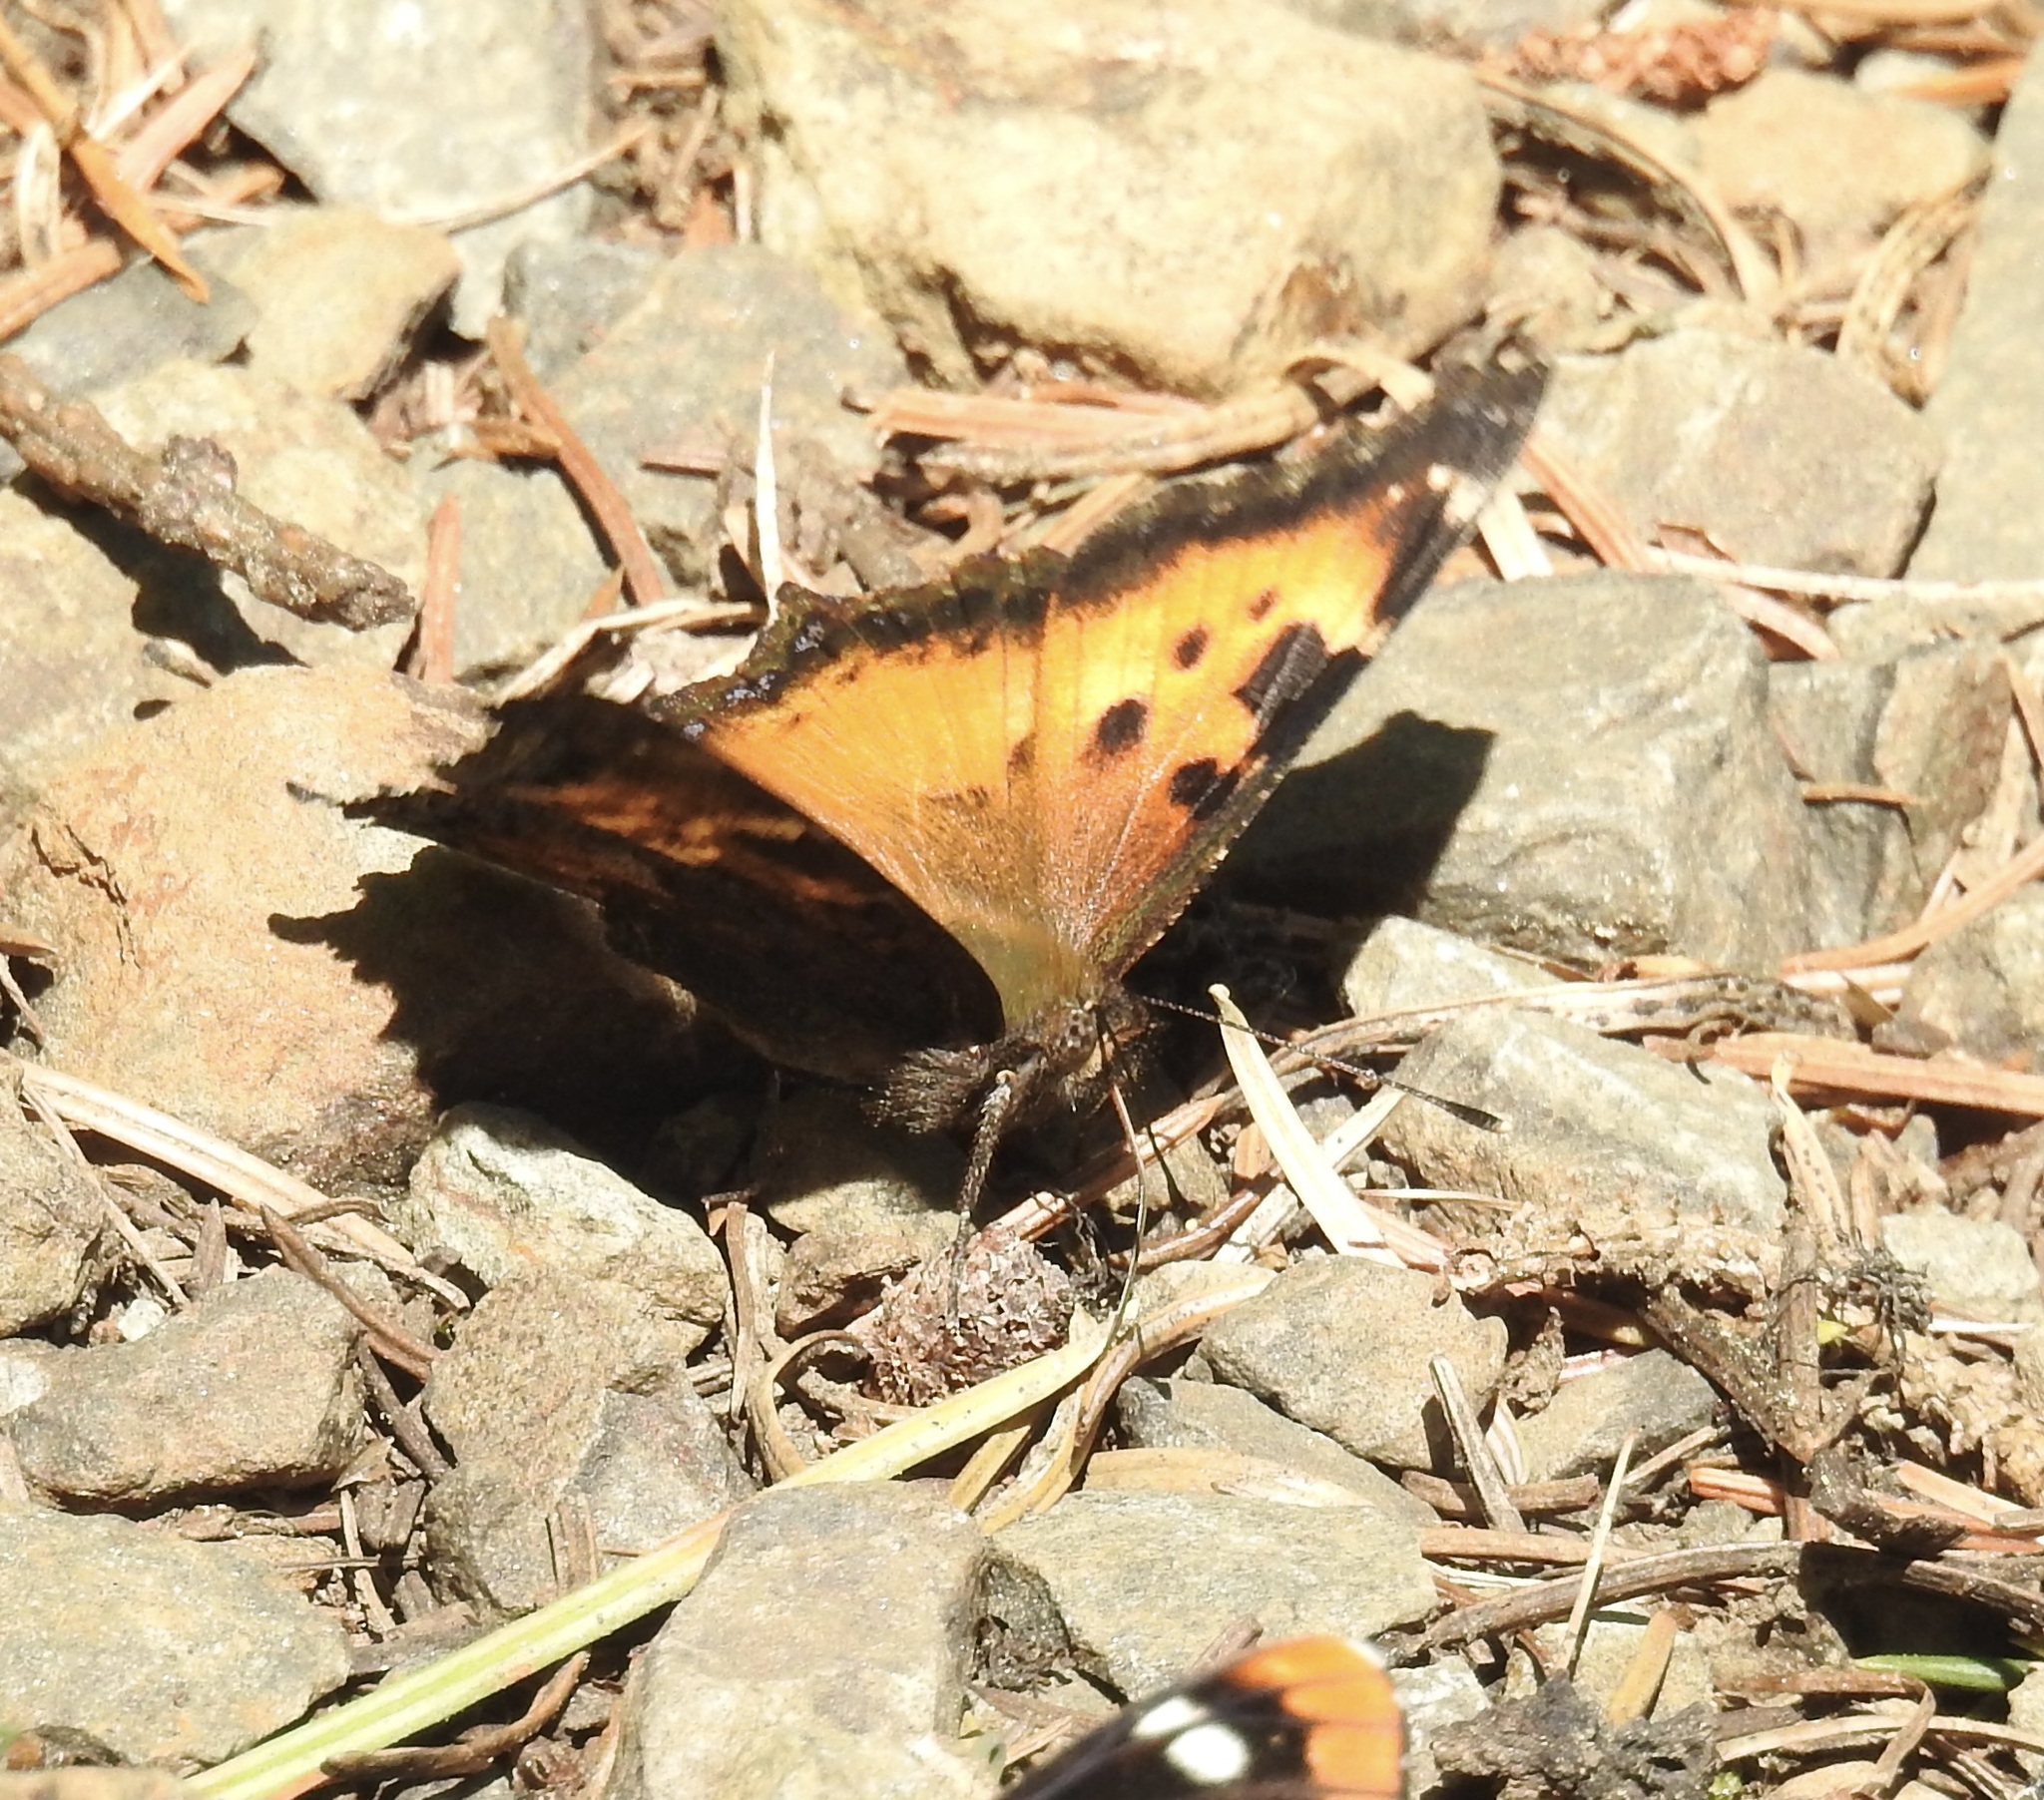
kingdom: Animalia
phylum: Arthropoda
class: Insecta
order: Lepidoptera
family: Nymphalidae
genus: Nymphalis
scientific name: Nymphalis californica
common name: California tortoiseshell
